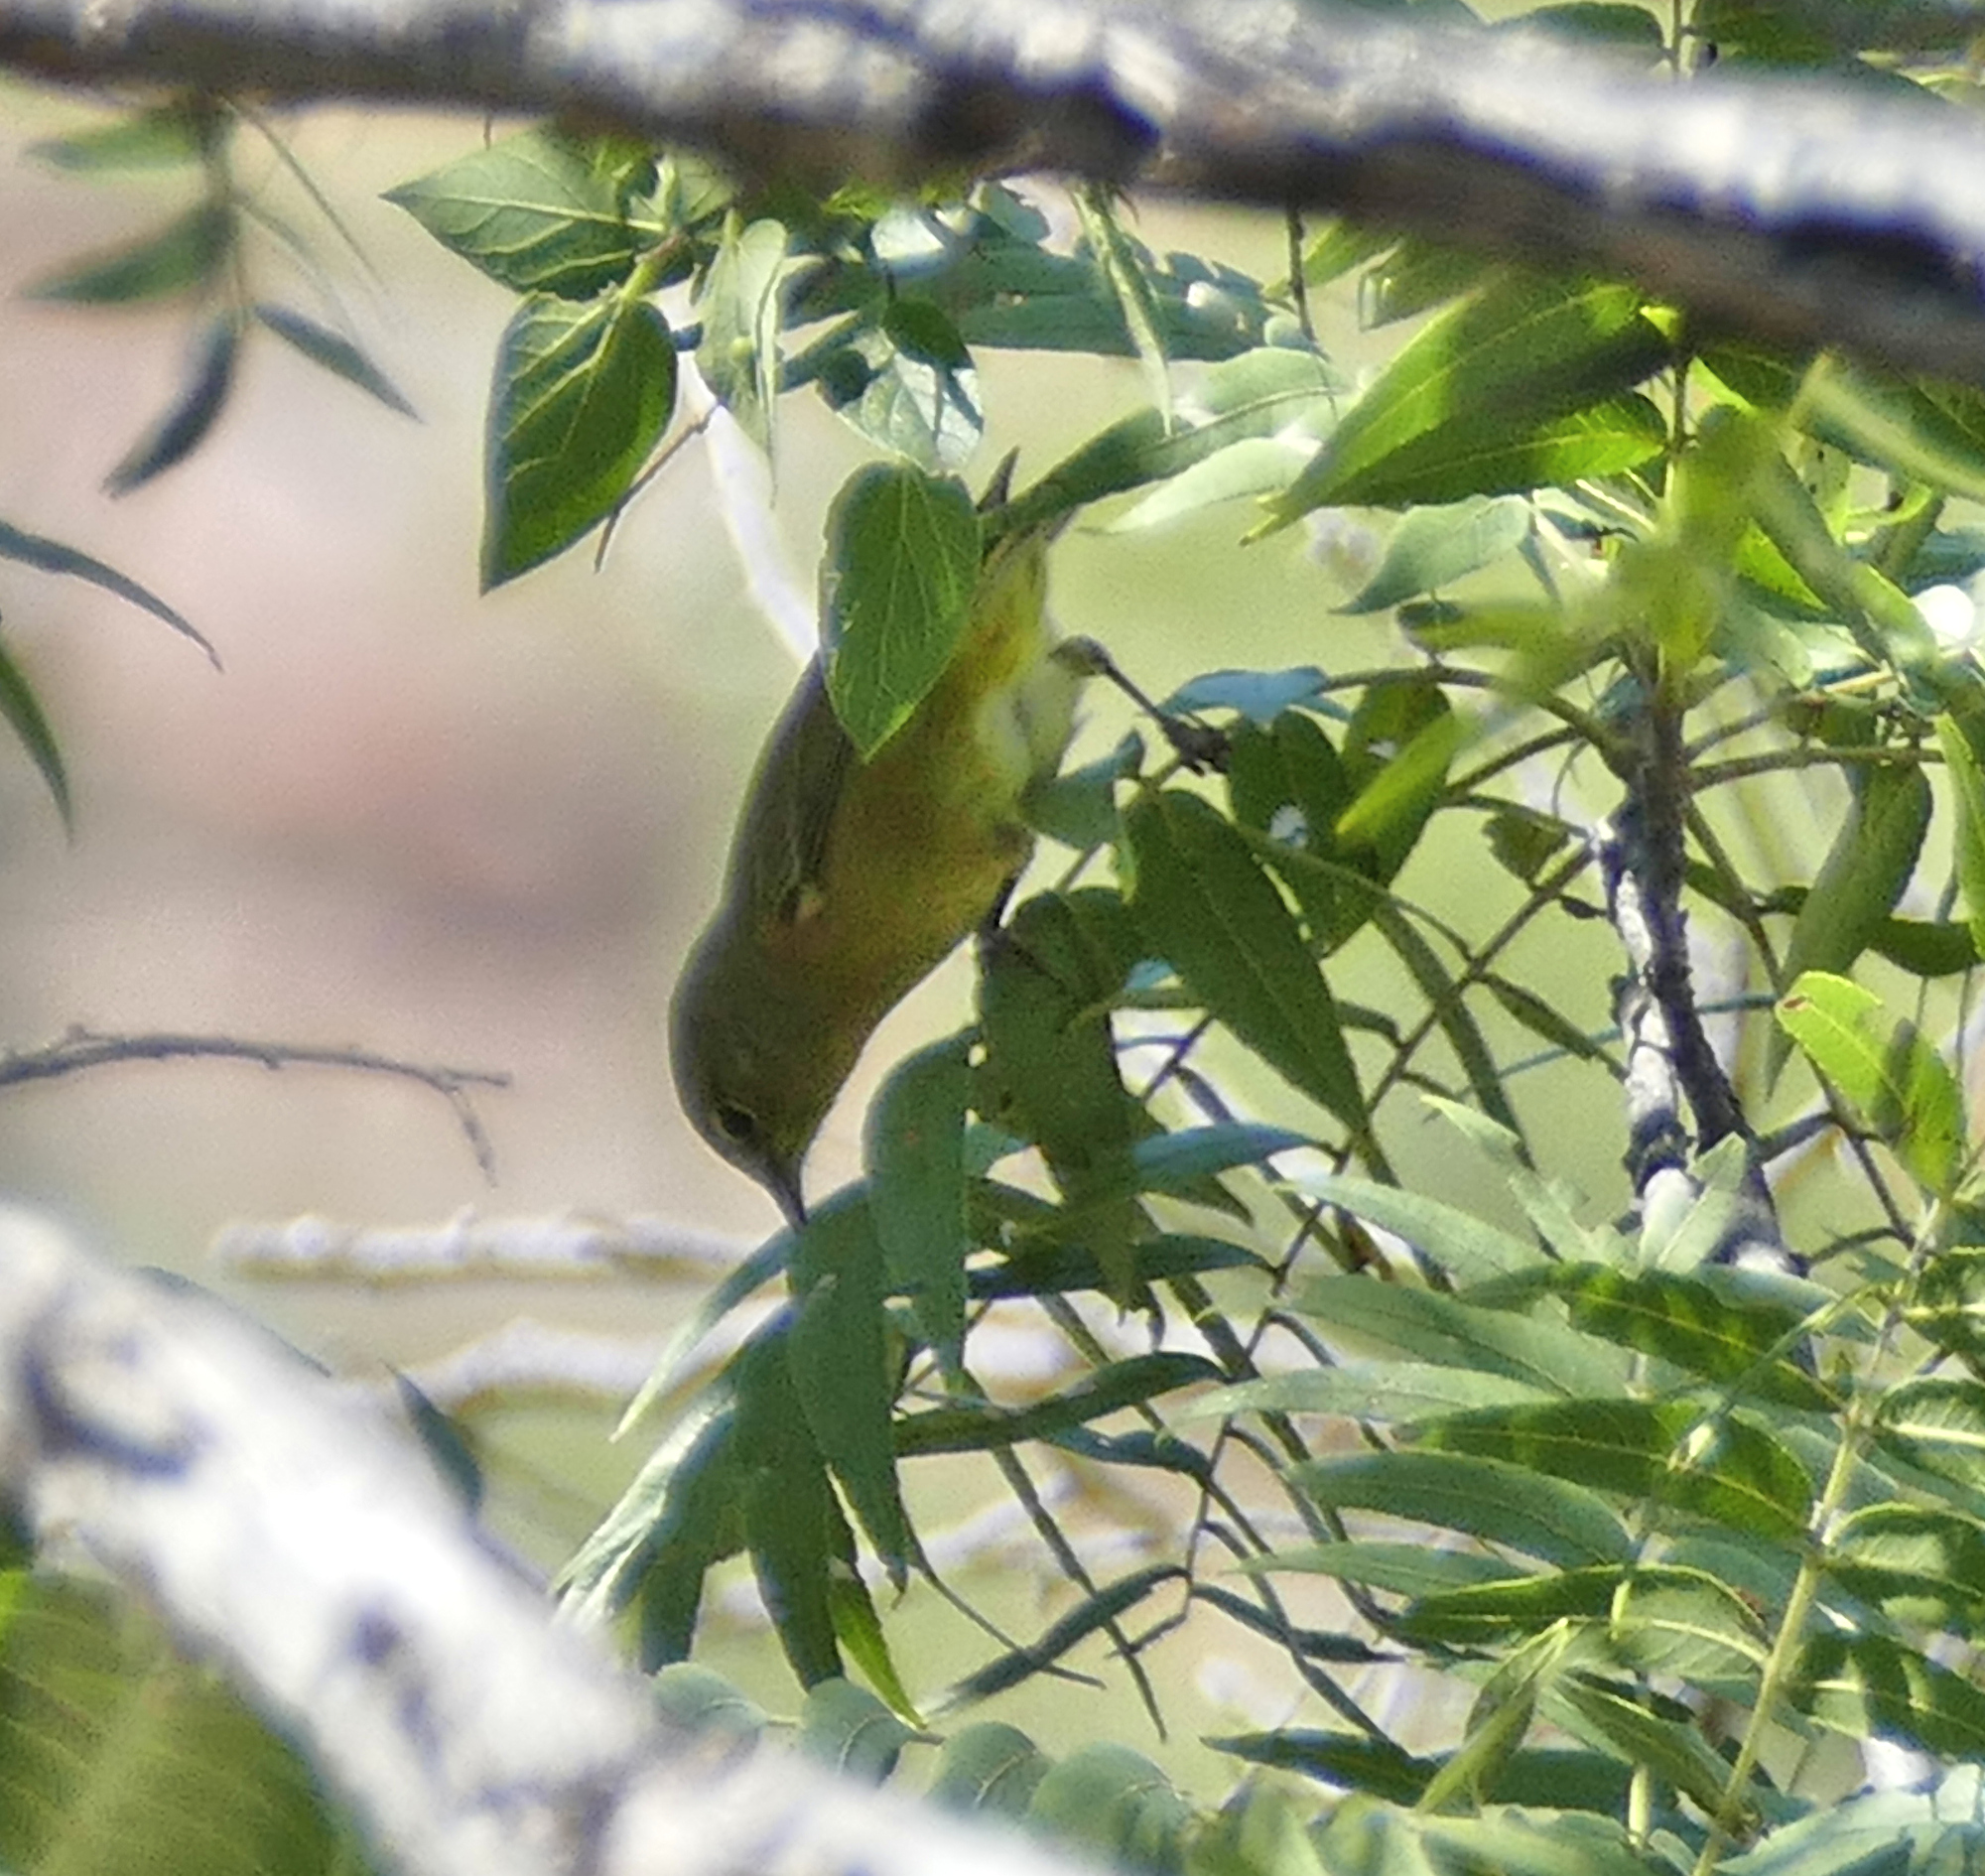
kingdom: Animalia
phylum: Chordata
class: Aves
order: Passeriformes
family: Parulidae
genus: Leiothlypis
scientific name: Leiothlypis celata
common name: Orange-crowned warbler
